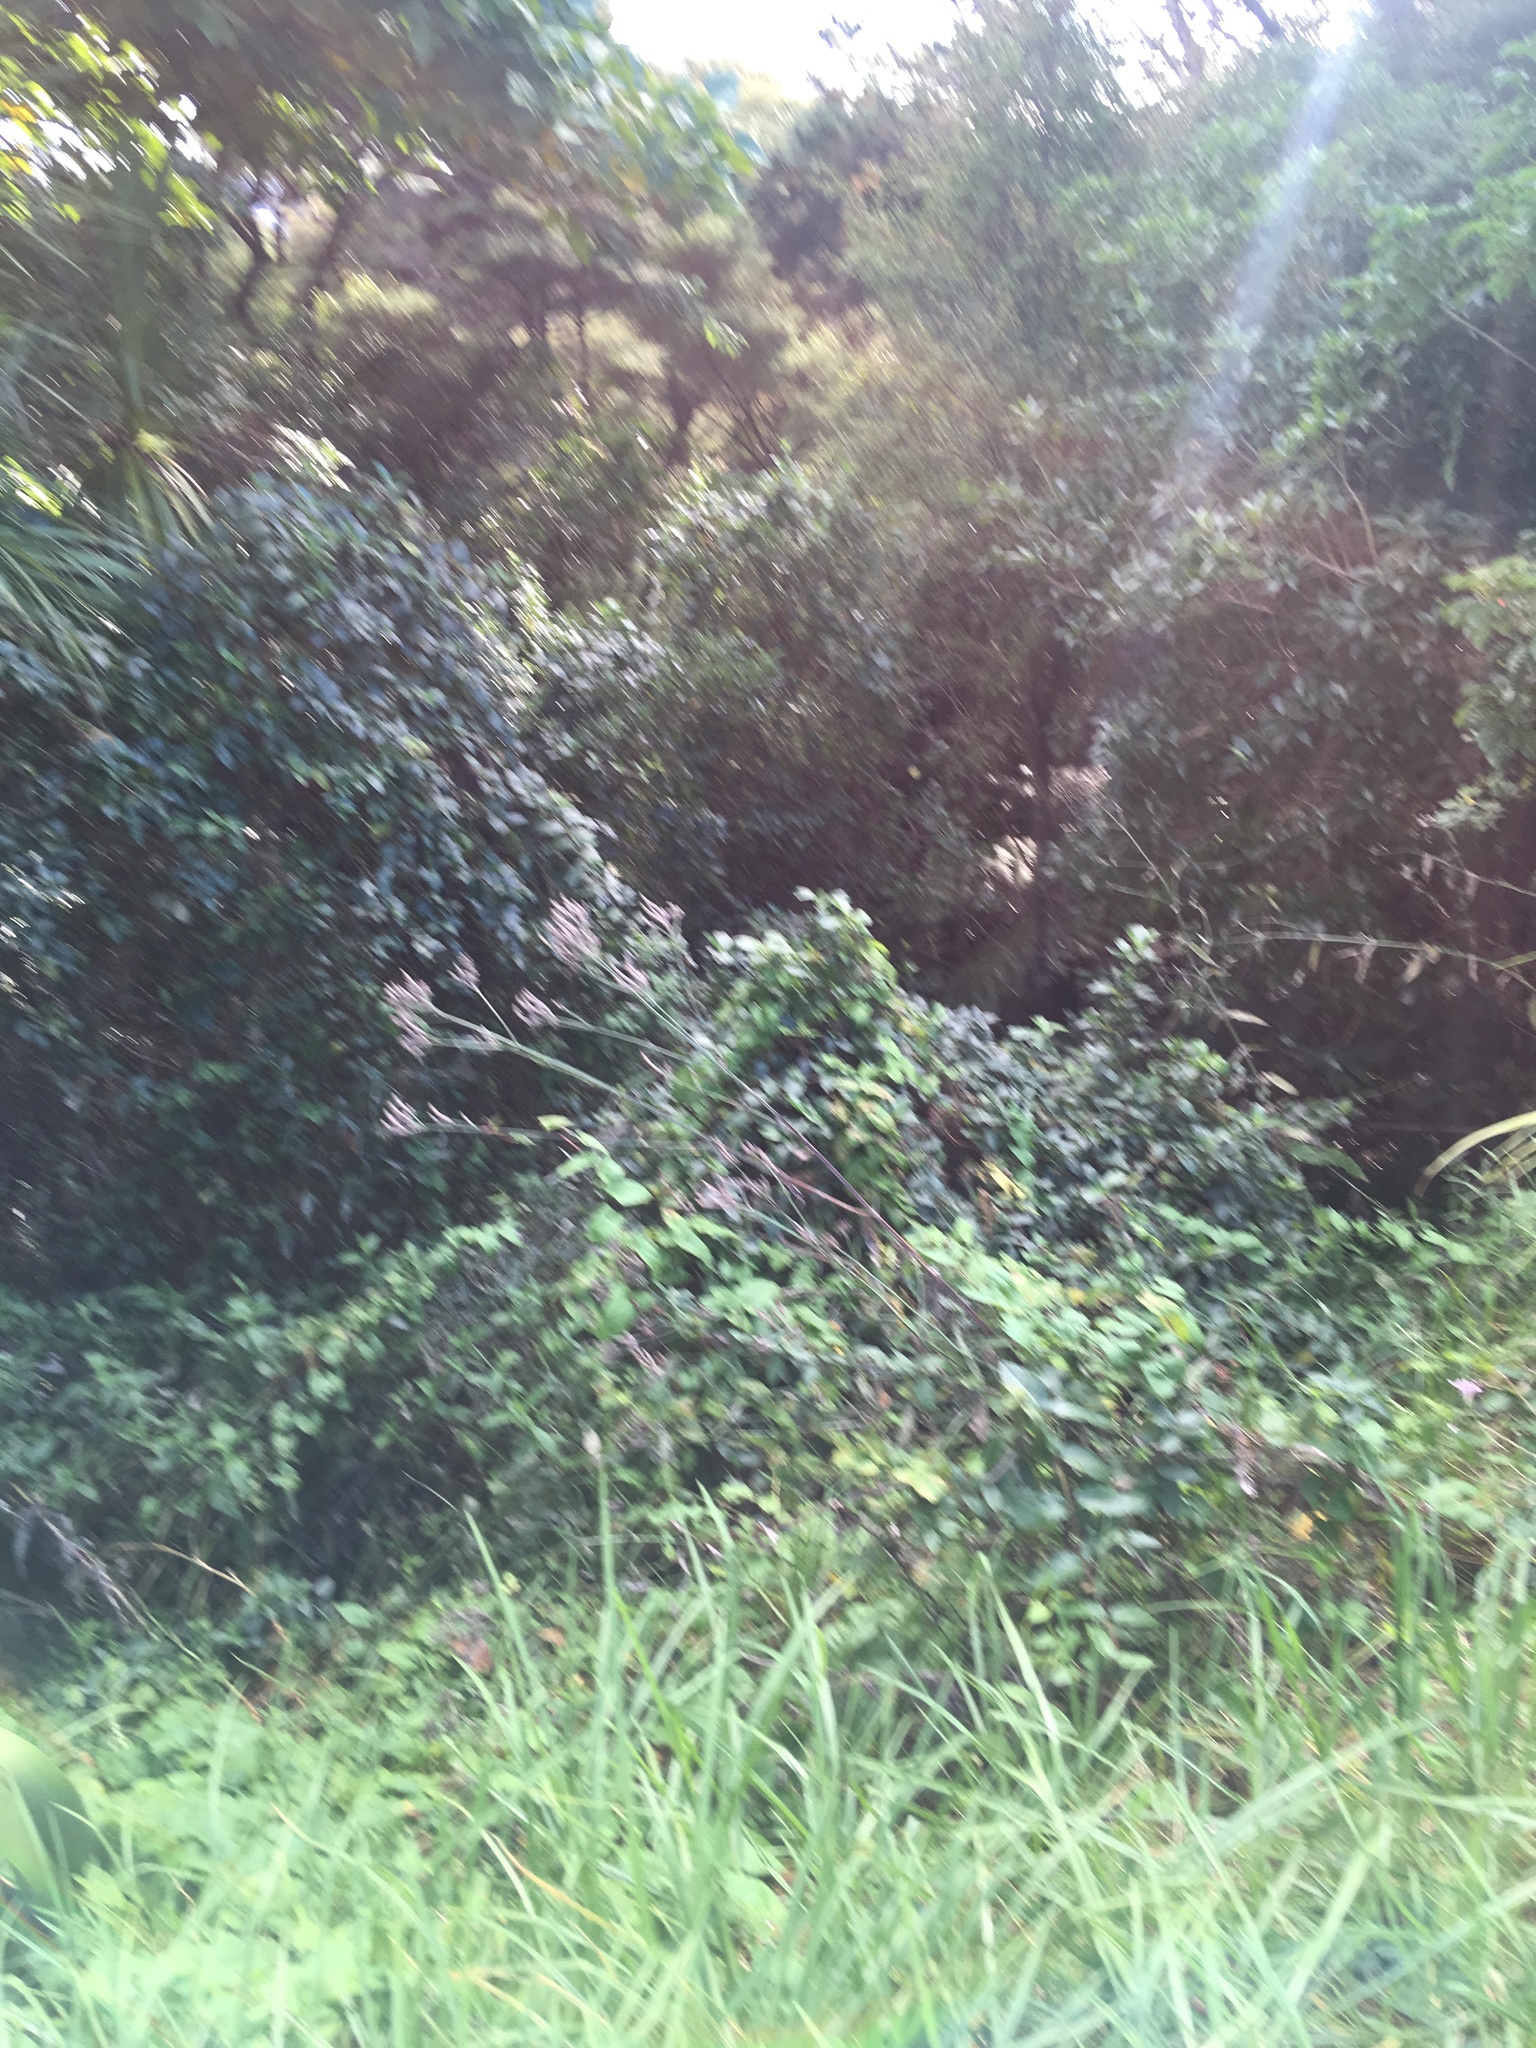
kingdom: Plantae
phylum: Tracheophyta
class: Magnoliopsida
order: Dipsacales
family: Caprifoliaceae
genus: Lonicera
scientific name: Lonicera japonica
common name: Japanese honeysuckle
